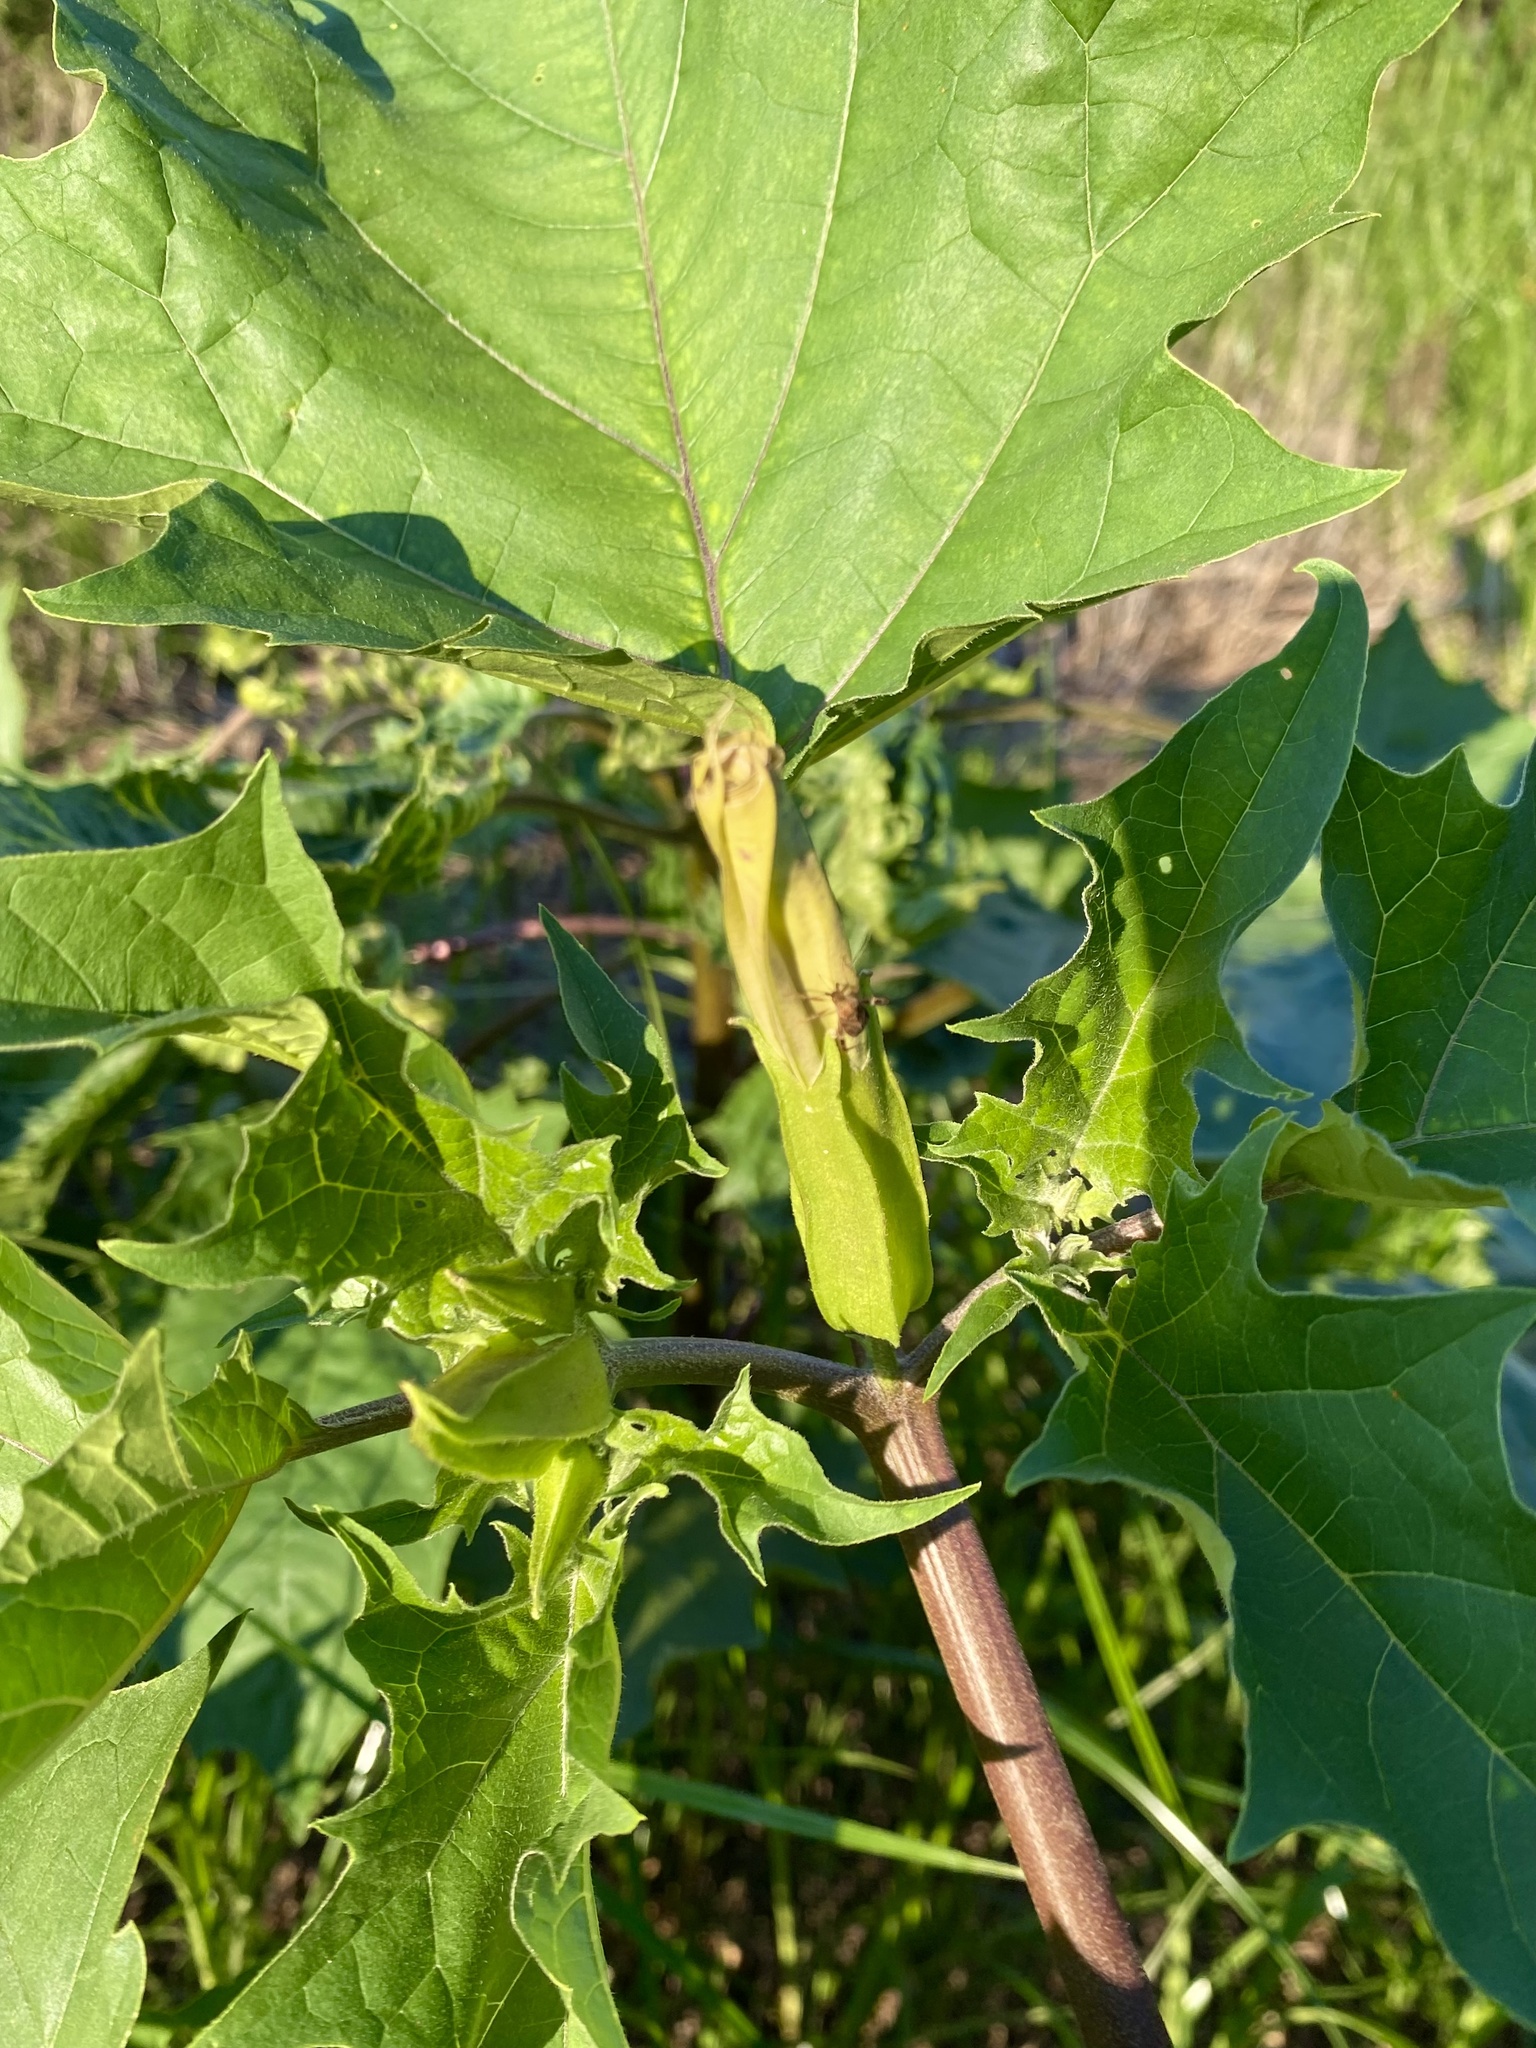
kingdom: Plantae
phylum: Tracheophyta
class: Magnoliopsida
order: Solanales
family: Solanaceae
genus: Datura
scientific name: Datura stramonium
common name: Thorn-apple
